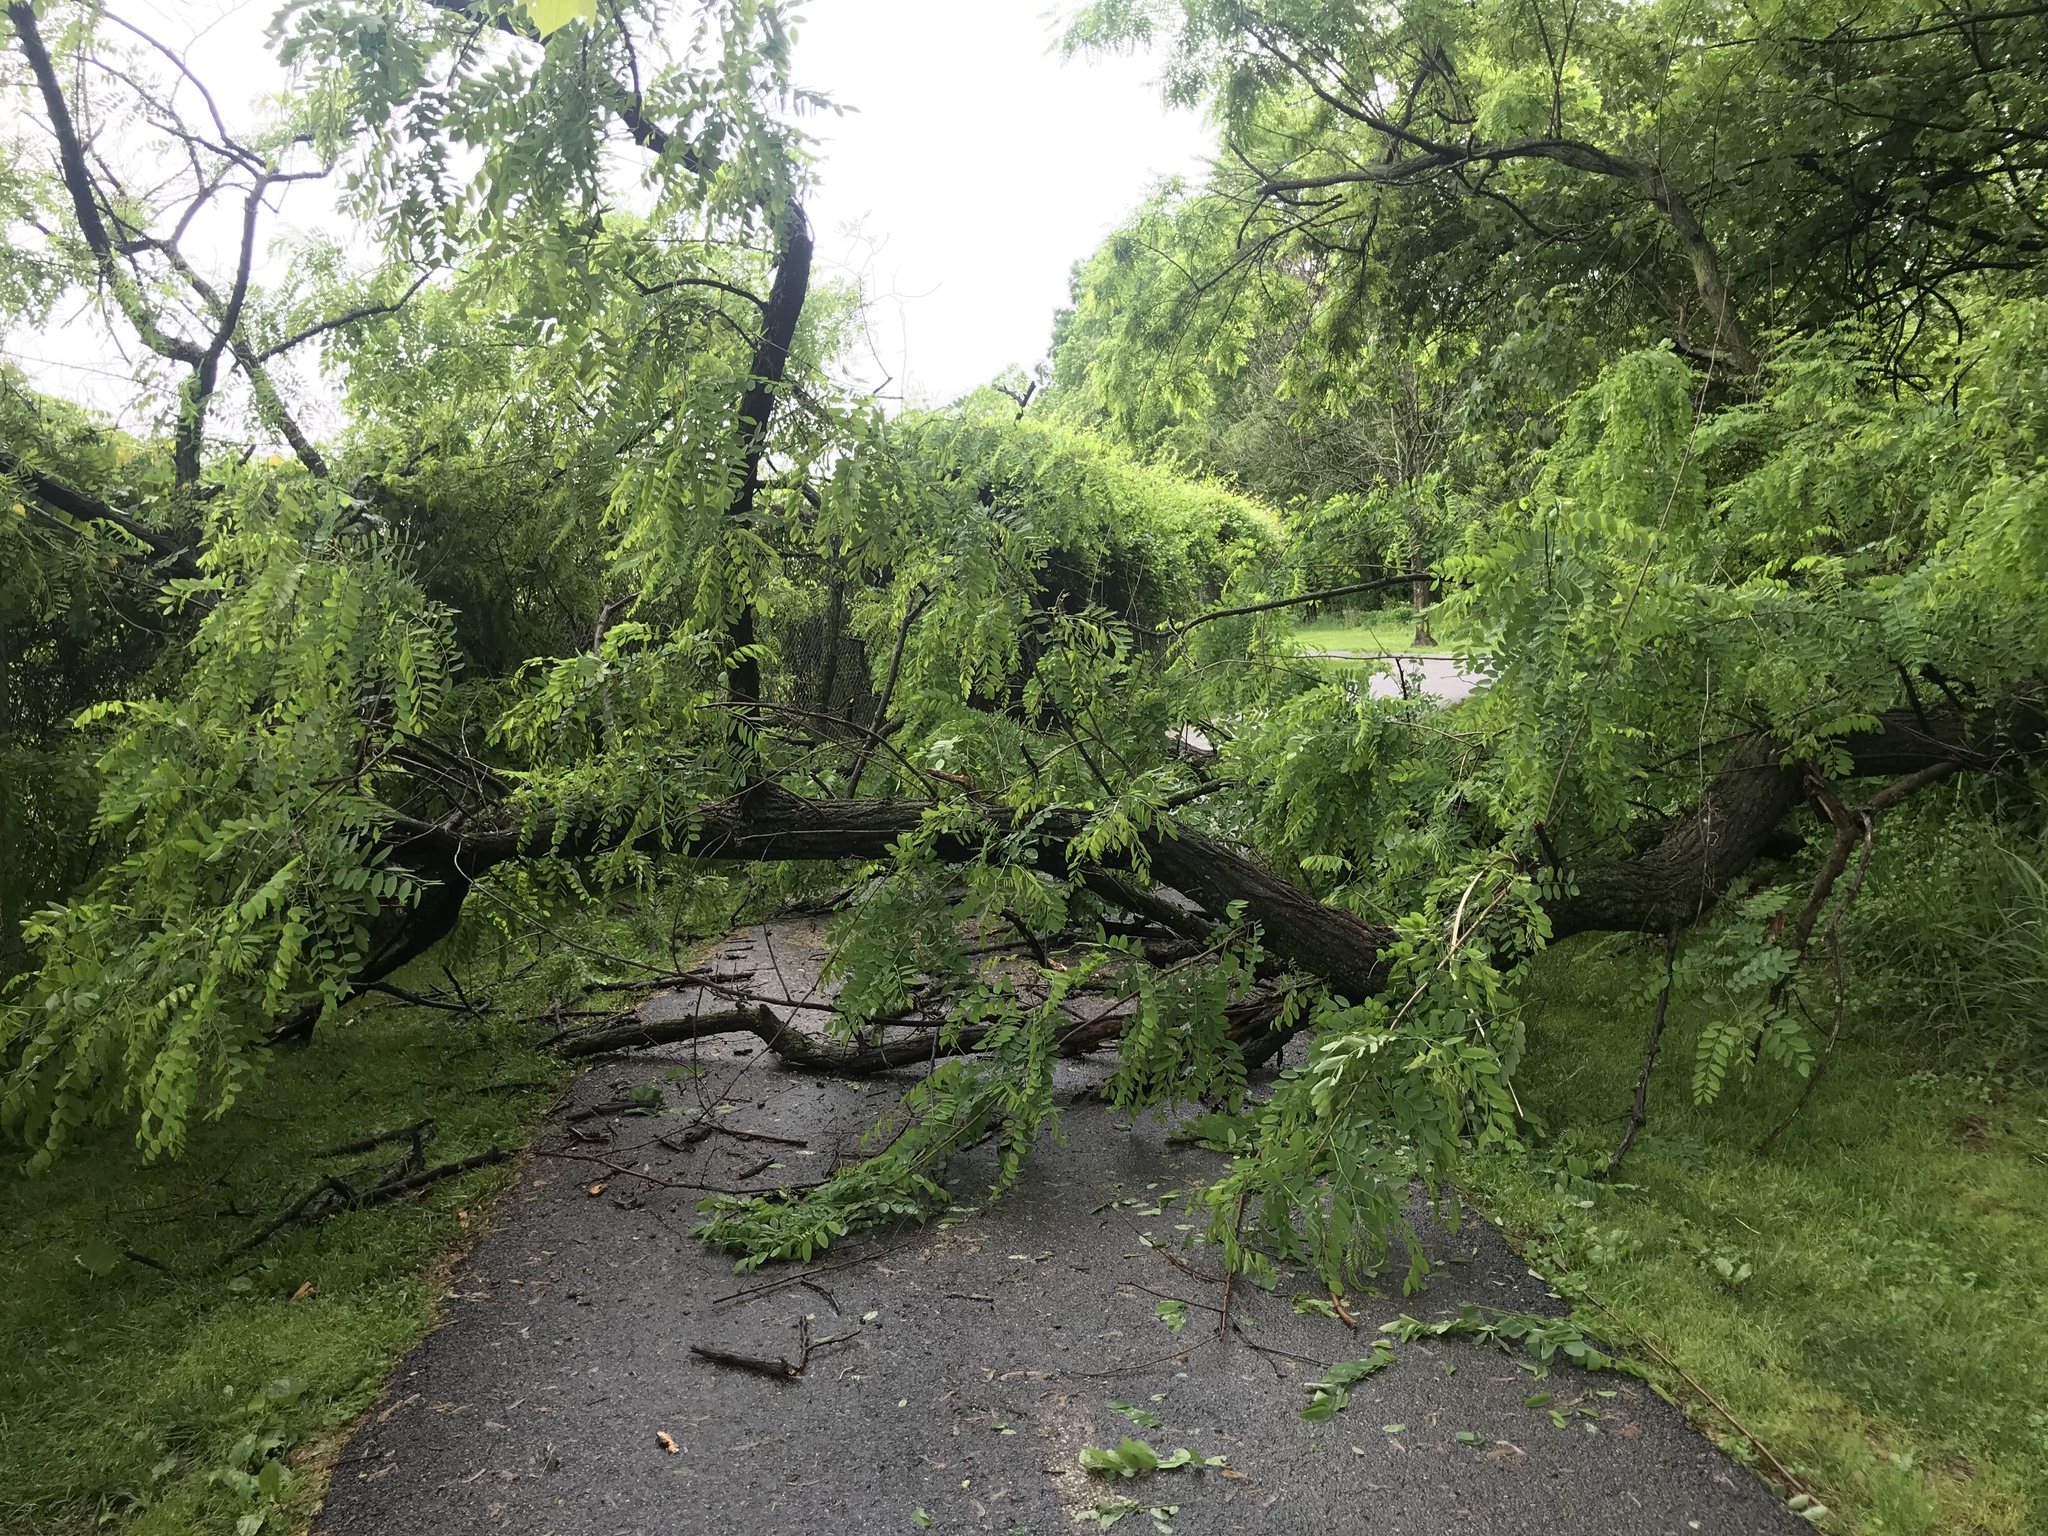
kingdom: Plantae
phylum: Tracheophyta
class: Magnoliopsida
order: Fabales
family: Fabaceae
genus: Robinia
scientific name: Robinia pseudoacacia
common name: Black locust
